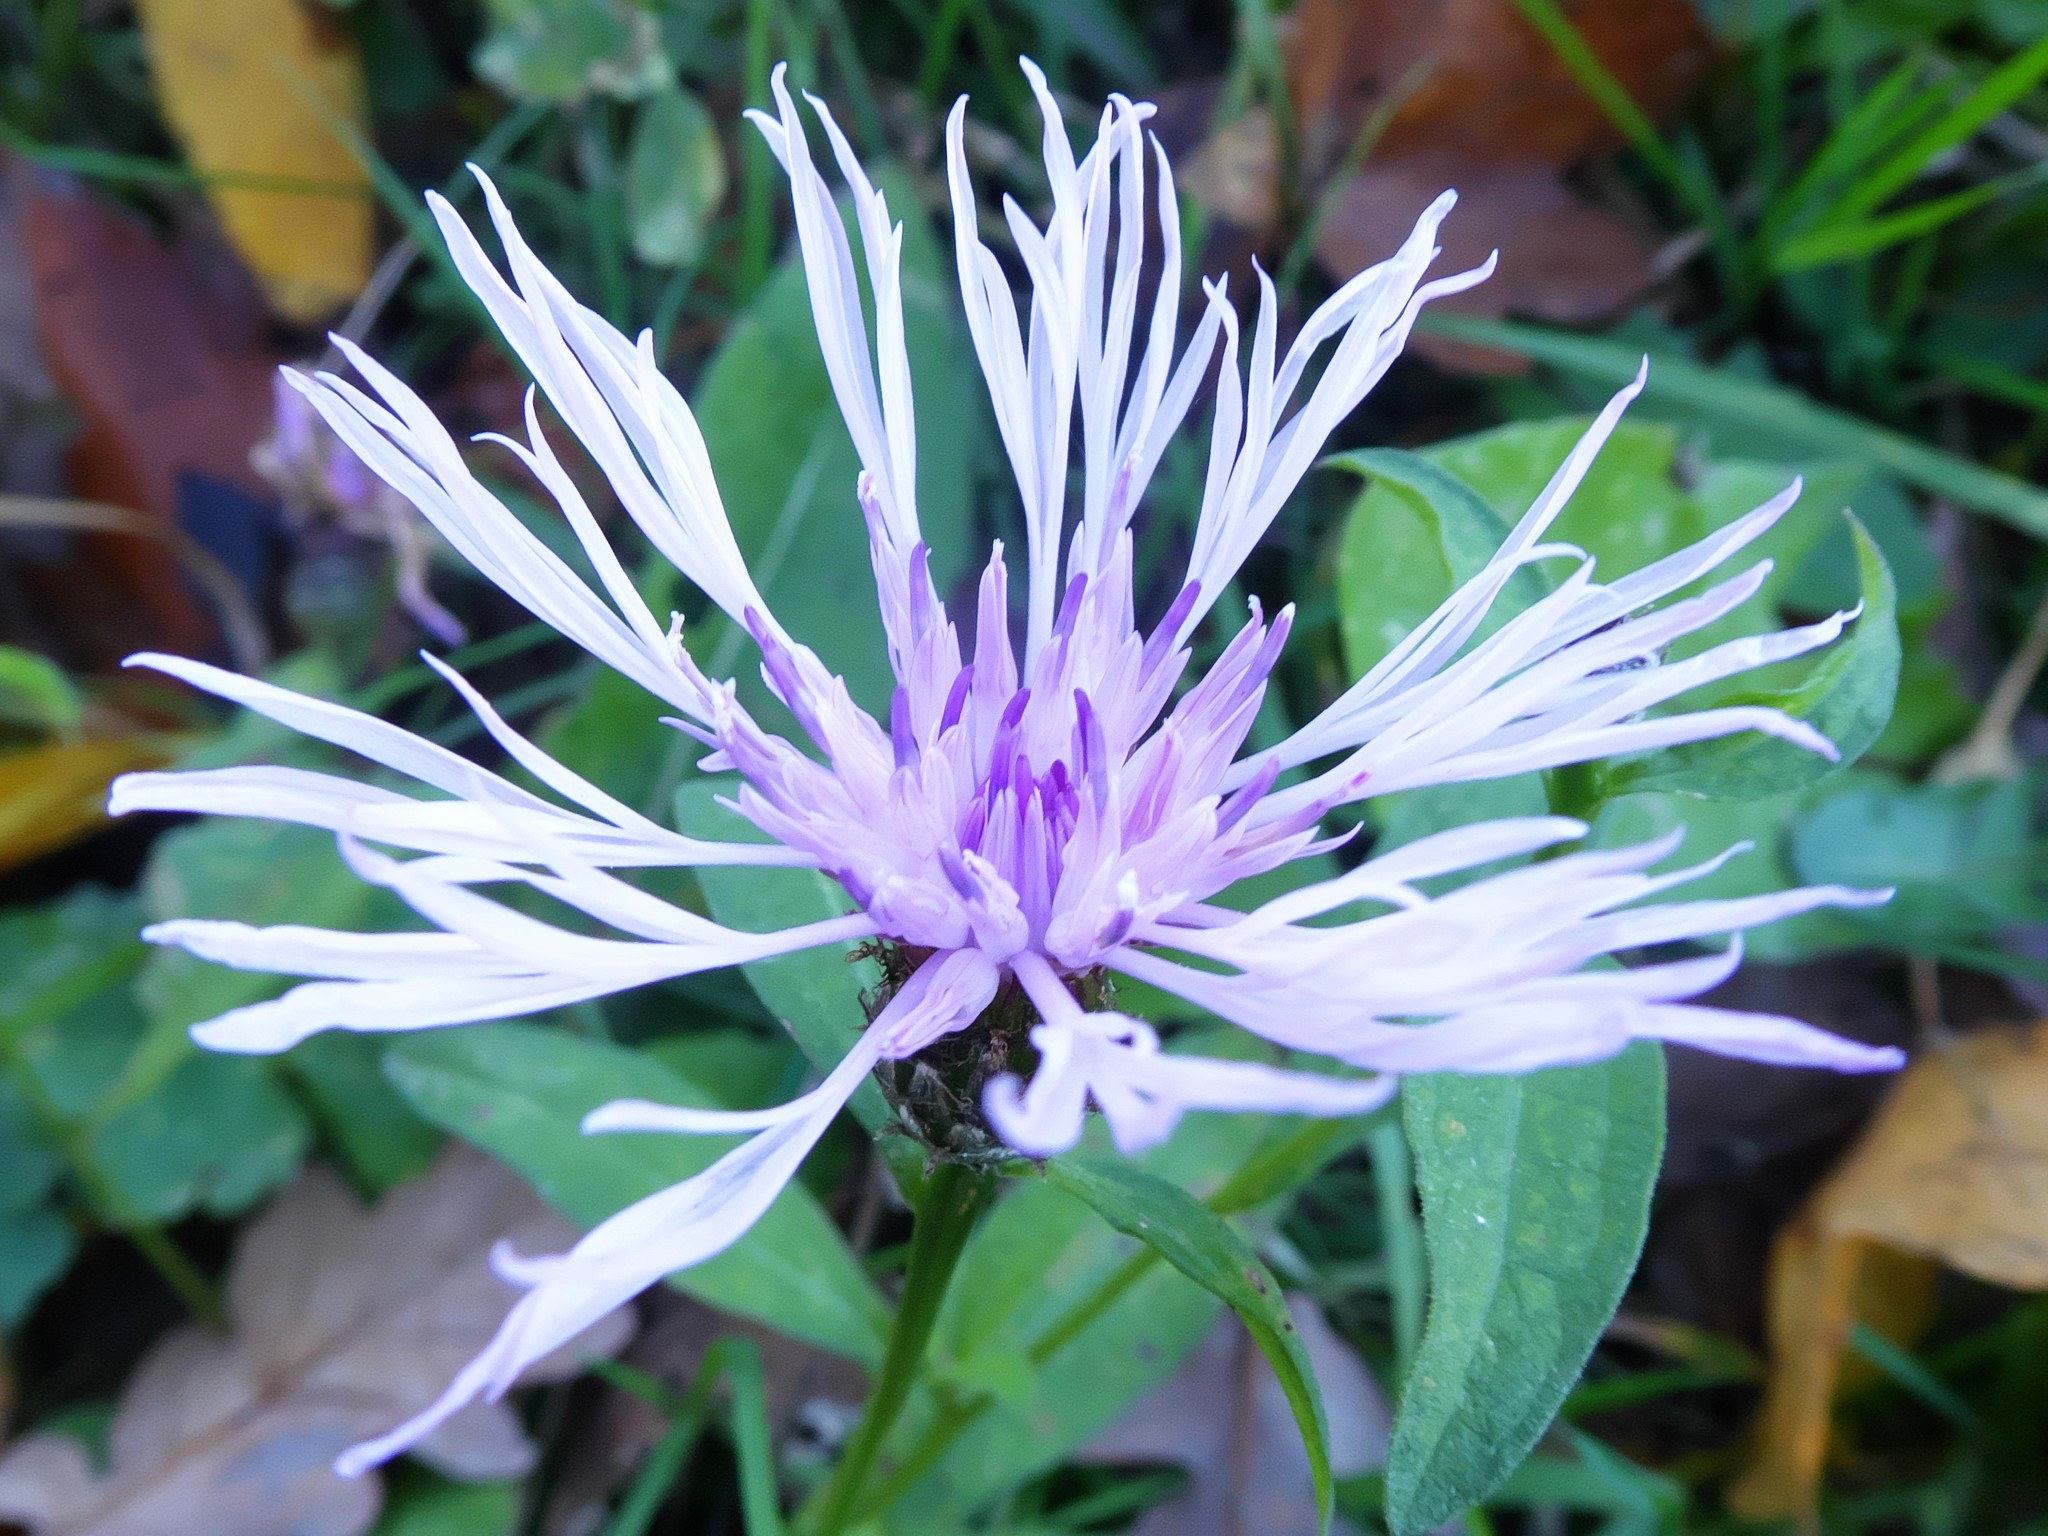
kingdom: Plantae
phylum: Tracheophyta
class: Magnoliopsida
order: Asterales
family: Asteraceae
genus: Centaurea
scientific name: Centaurea nigrescens
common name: Tyrol knapweed
